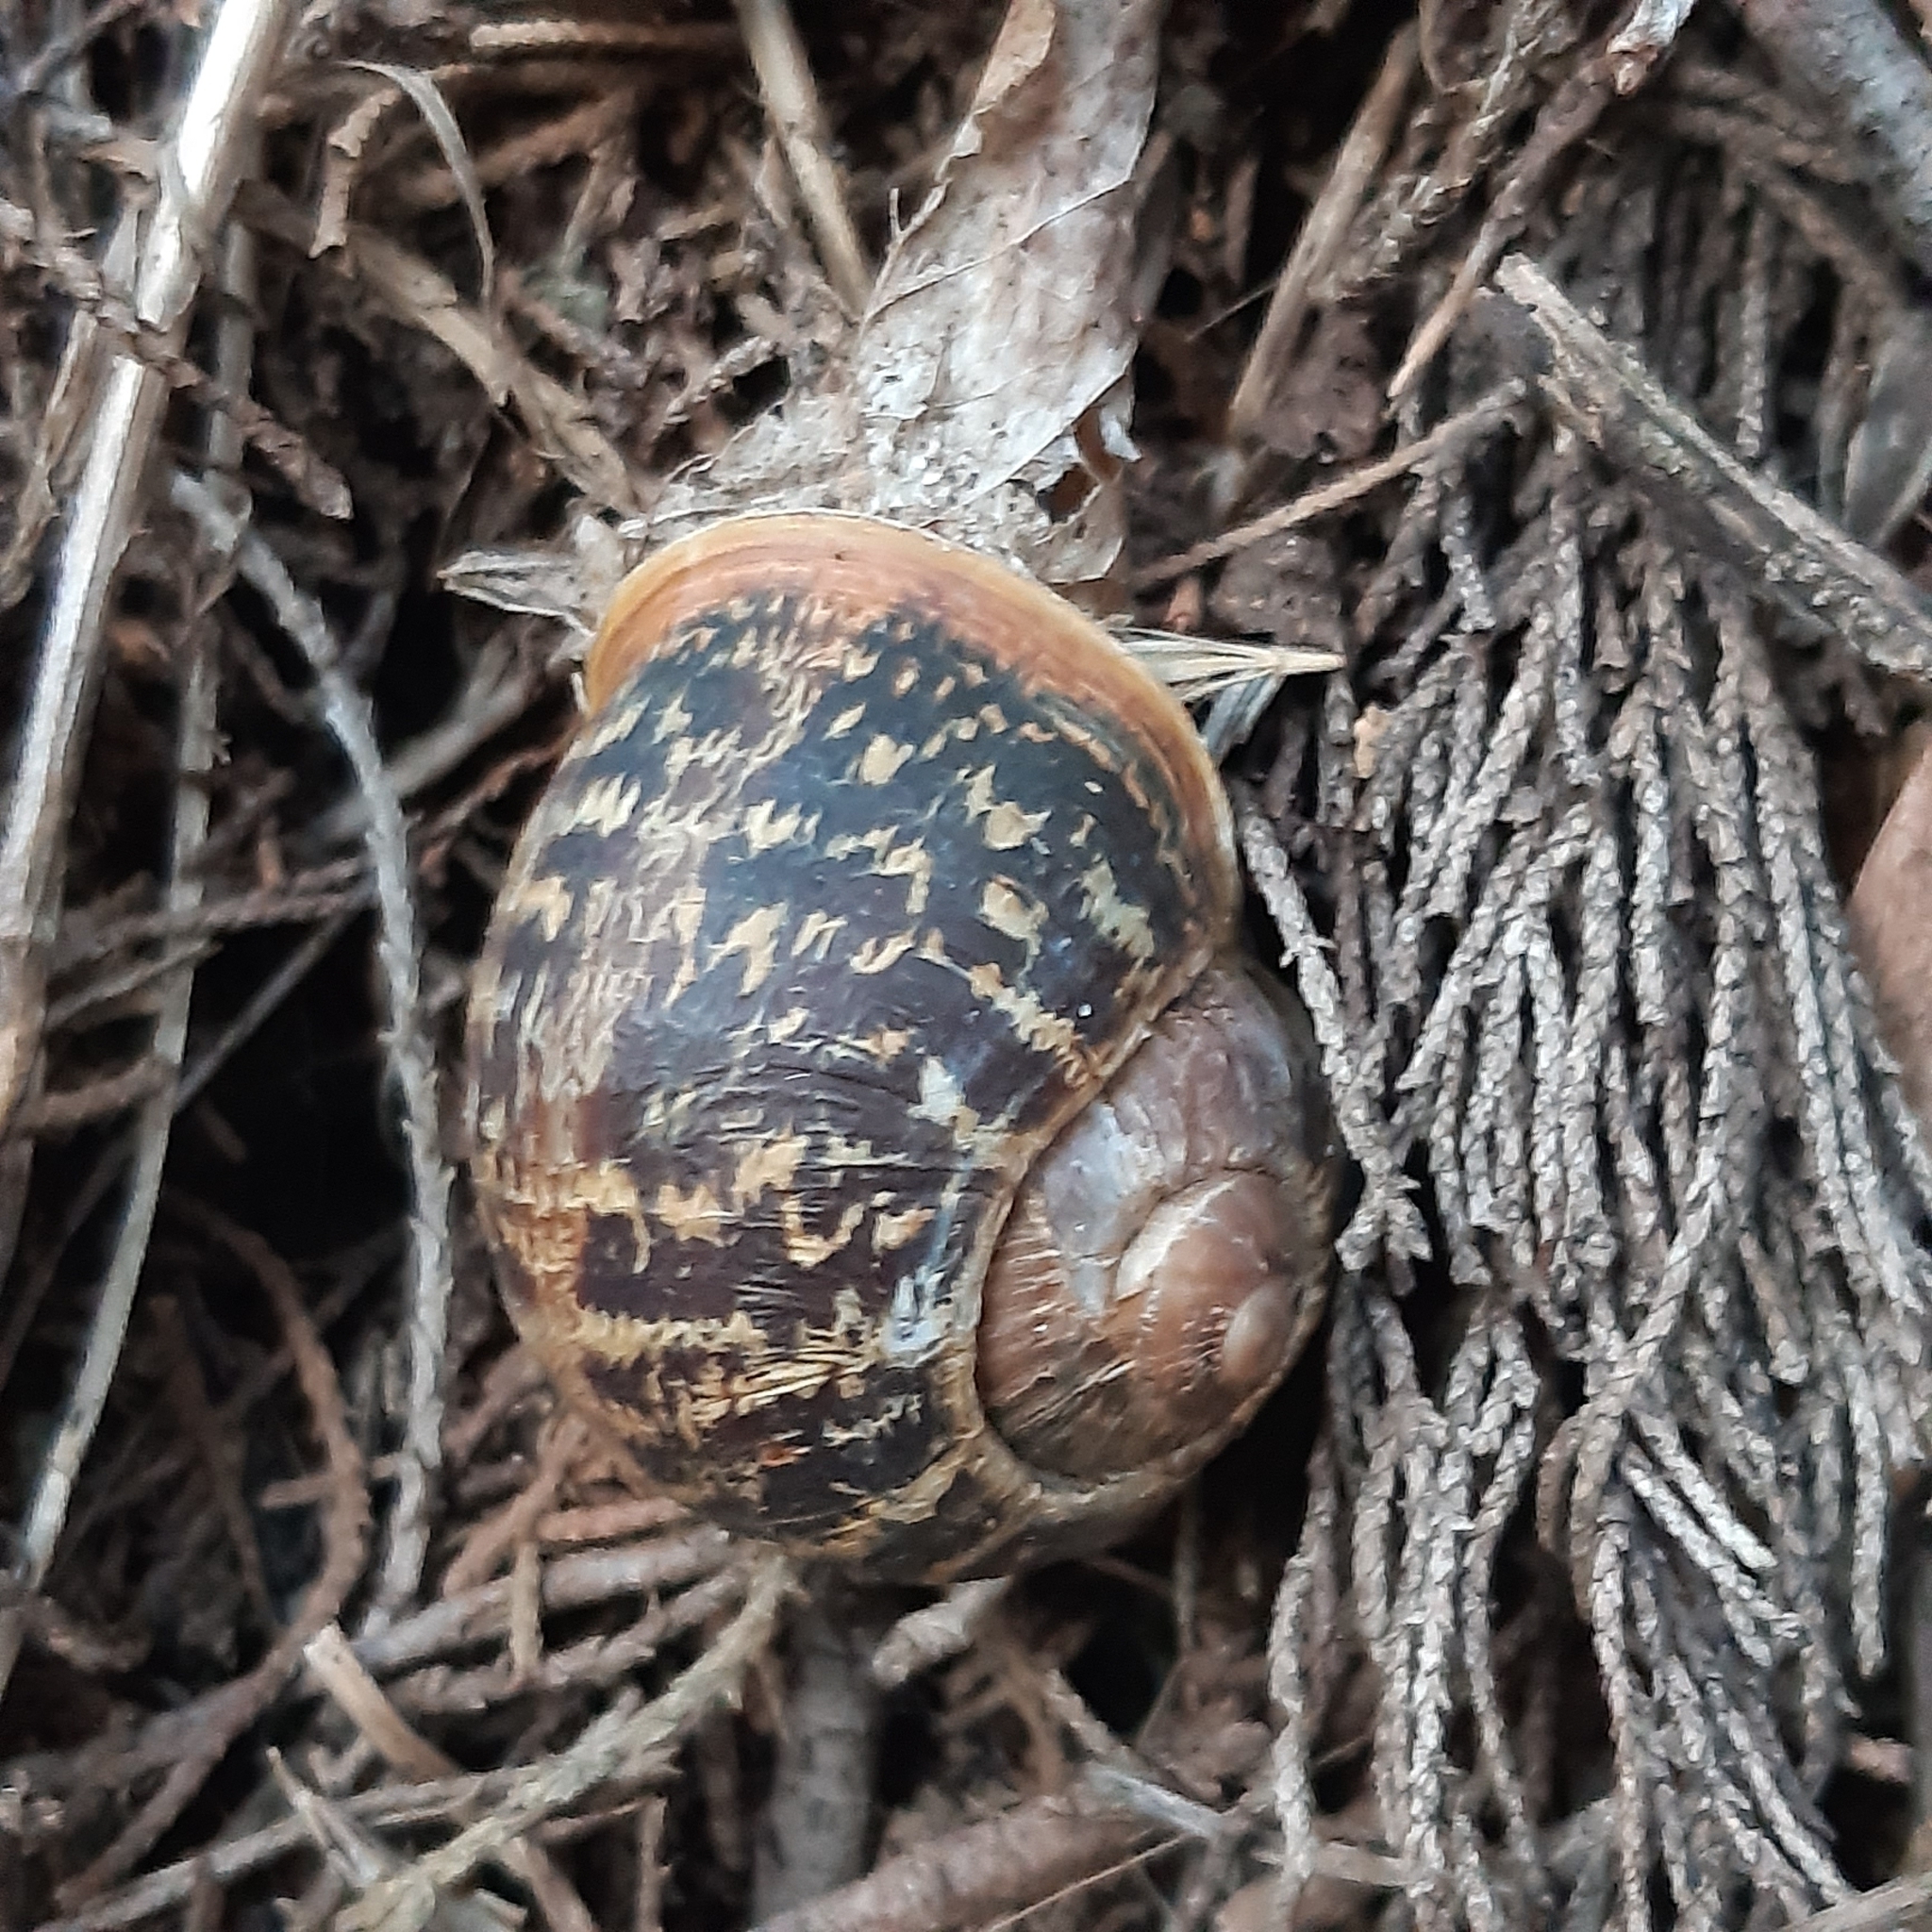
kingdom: Animalia
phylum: Mollusca
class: Gastropoda
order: Stylommatophora
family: Helicidae
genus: Cornu
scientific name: Cornu aspersum
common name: Brown garden snail
